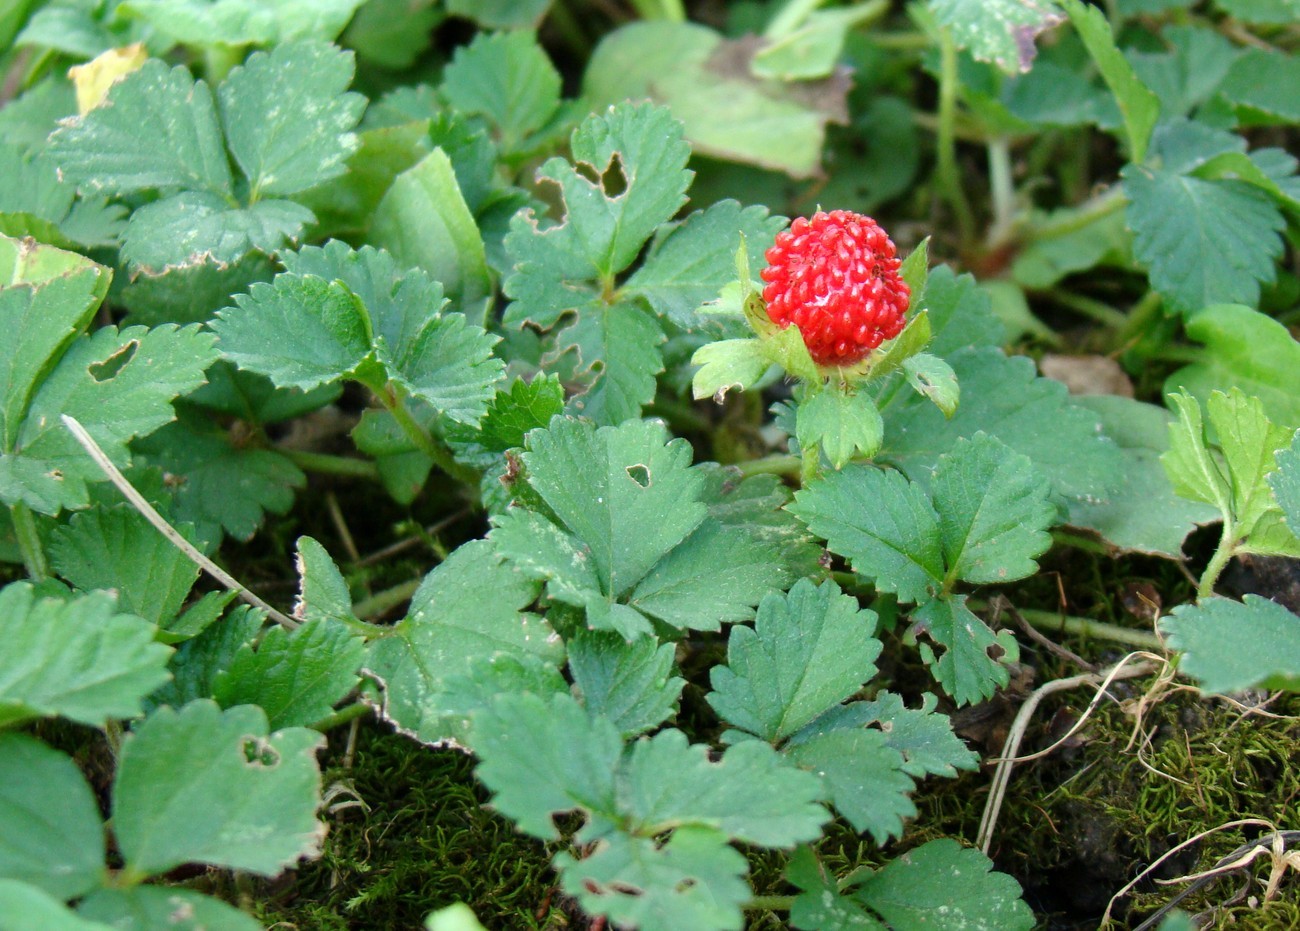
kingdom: Plantae
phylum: Tracheophyta
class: Magnoliopsida
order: Rosales
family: Rosaceae
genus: Potentilla
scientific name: Potentilla indica
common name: Yellow-flowered strawberry
